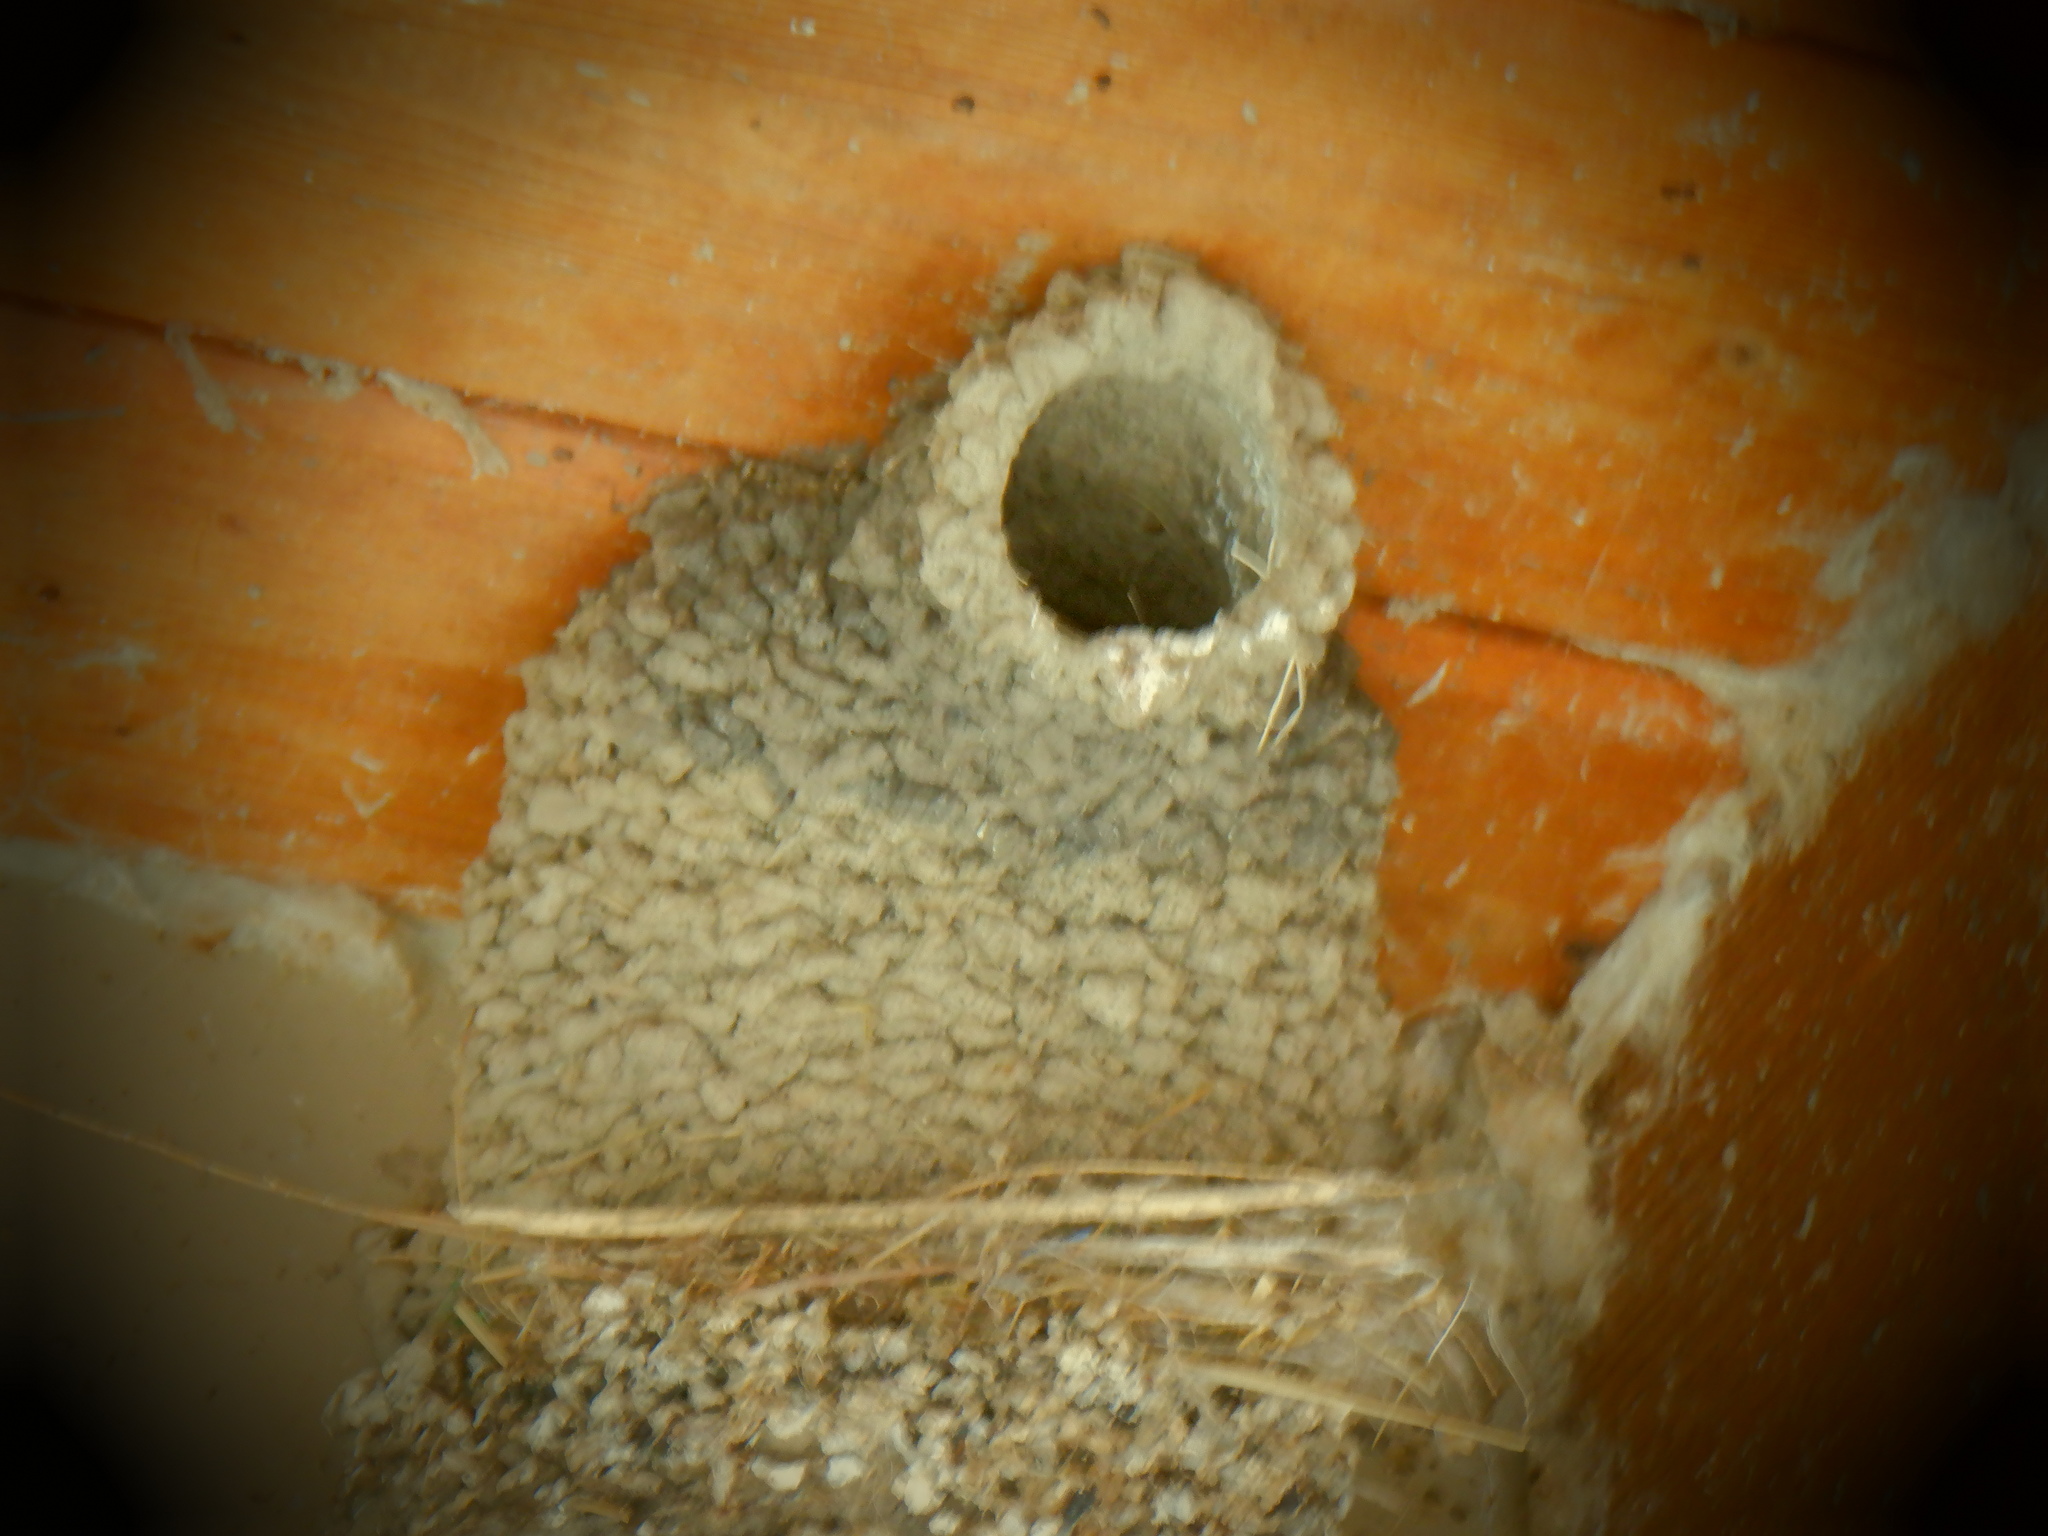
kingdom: Animalia
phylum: Chordata
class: Aves
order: Passeriformes
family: Hirundinidae
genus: Petrochelidon
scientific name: Petrochelidon pyrrhonota
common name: American cliff swallow
